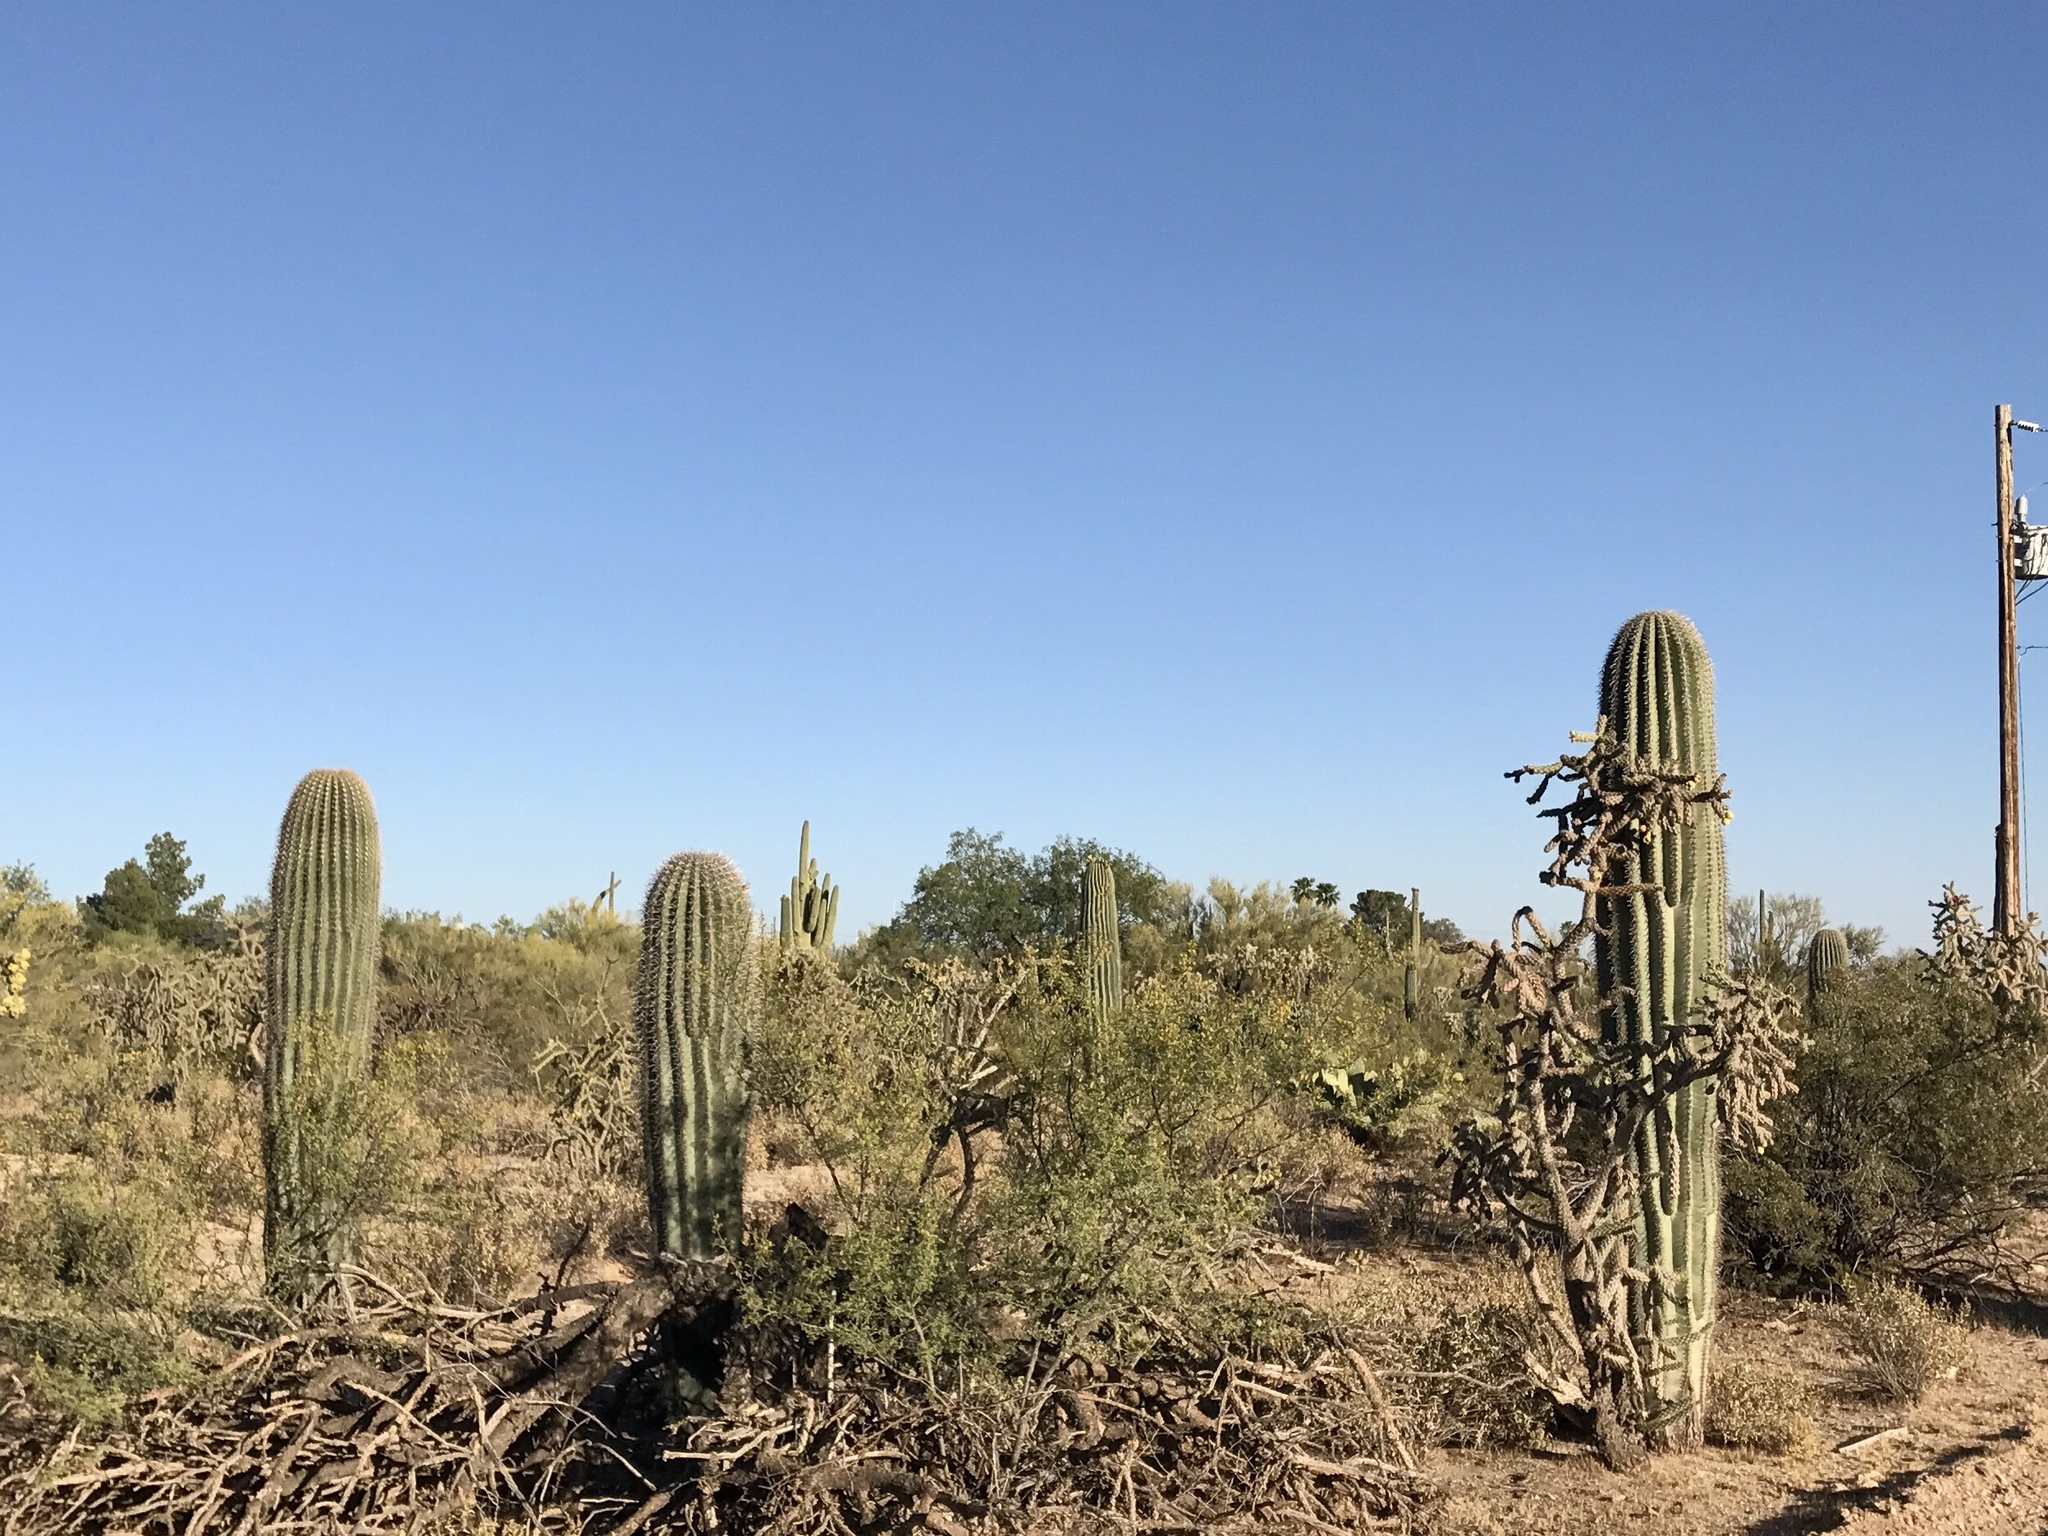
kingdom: Plantae
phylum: Tracheophyta
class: Magnoliopsida
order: Caryophyllales
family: Cactaceae
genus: Carnegiea
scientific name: Carnegiea gigantea
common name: Saguaro
